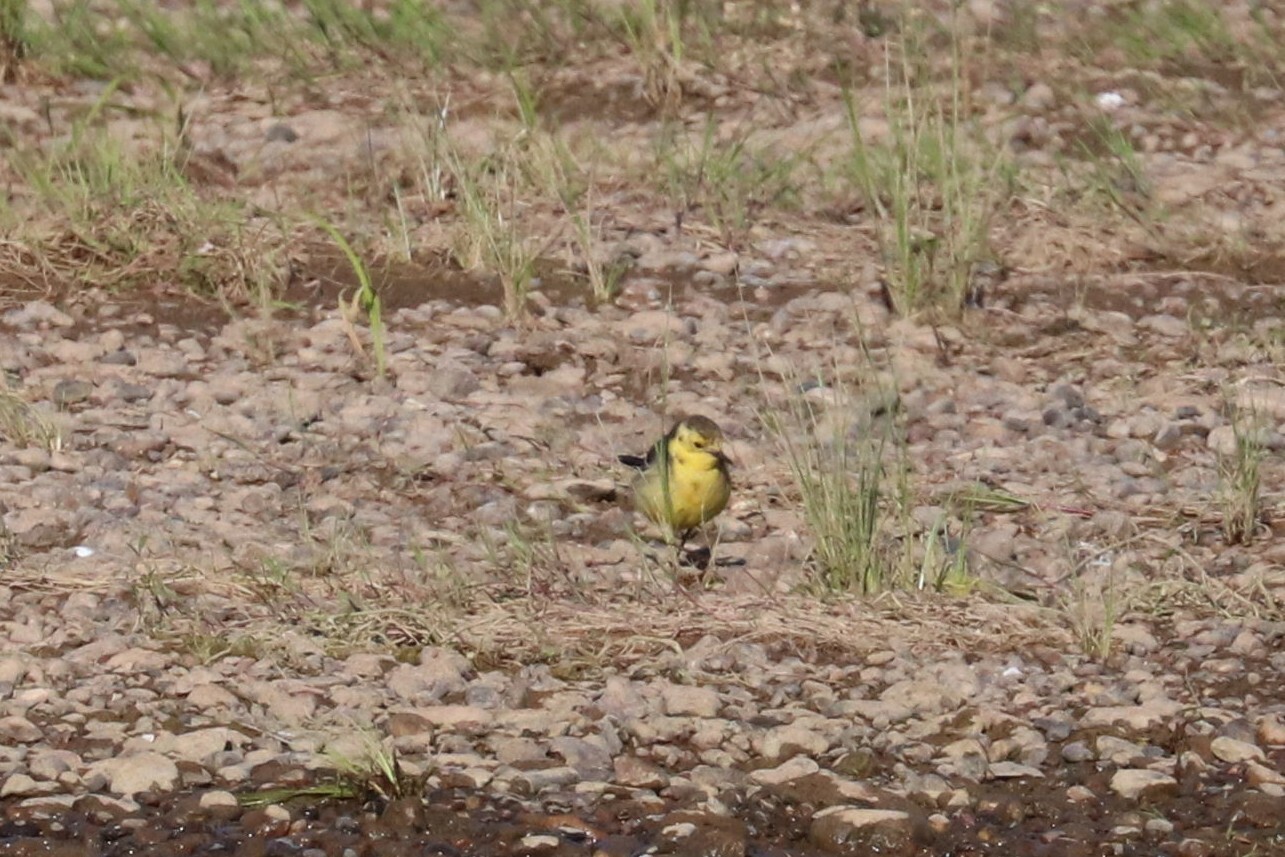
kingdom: Animalia
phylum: Chordata
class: Aves
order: Passeriformes
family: Motacillidae
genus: Motacilla
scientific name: Motacilla citreola
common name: Citrine wagtail
